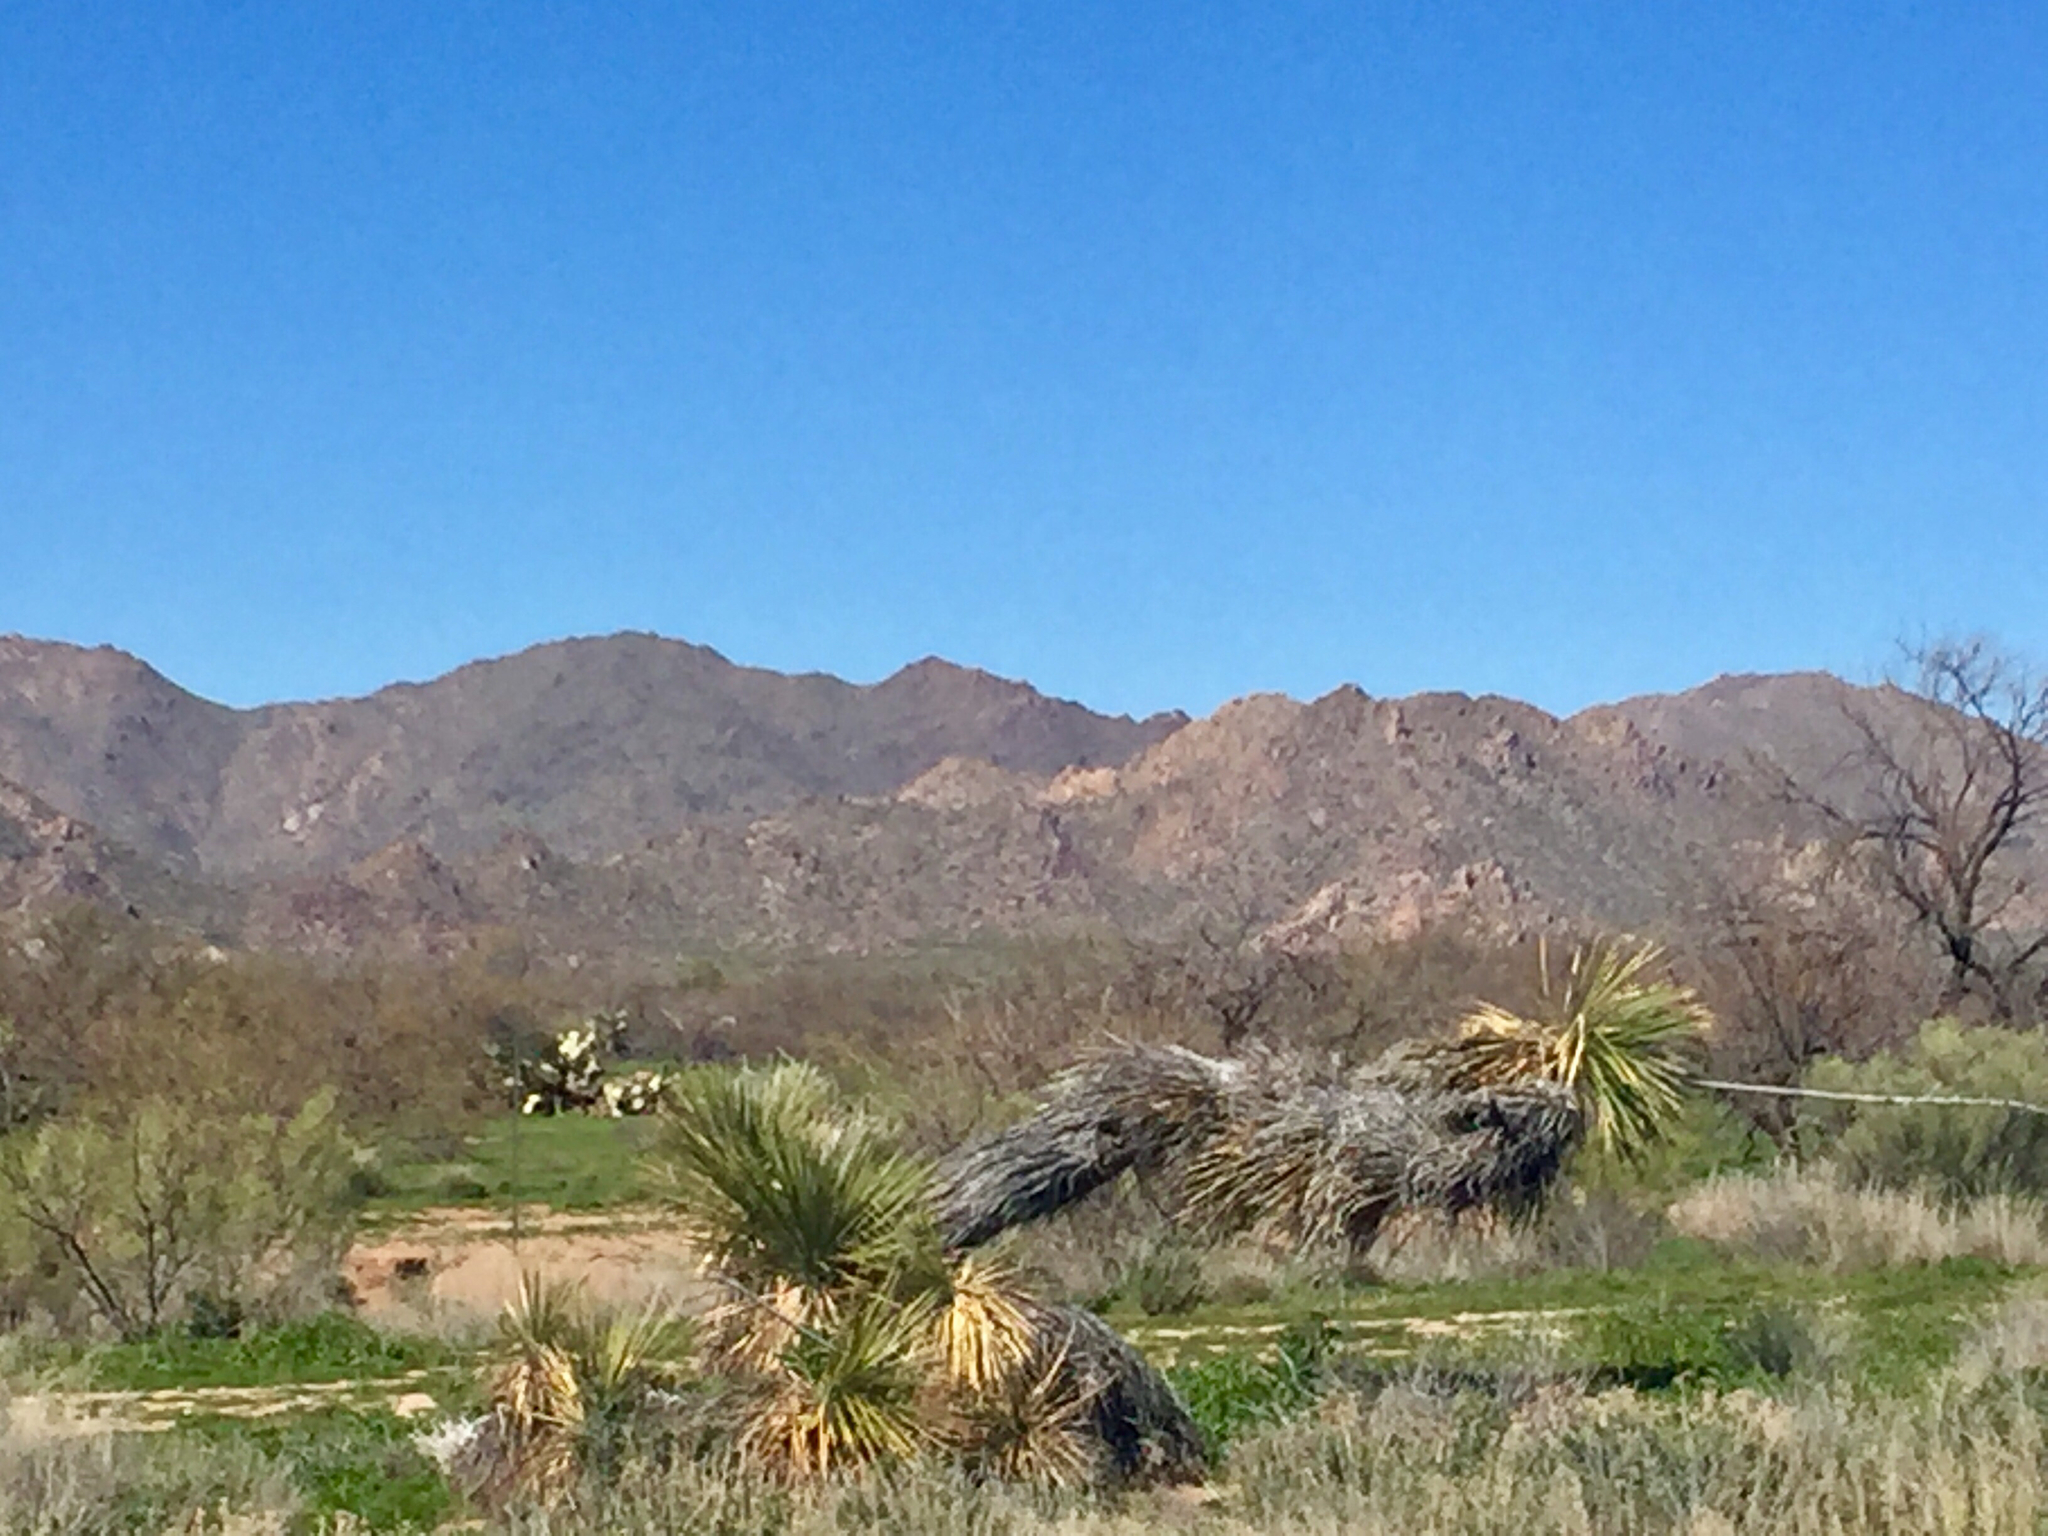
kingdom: Plantae
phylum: Tracheophyta
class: Liliopsida
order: Asparagales
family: Asparagaceae
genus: Yucca
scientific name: Yucca elata
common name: Palmella
